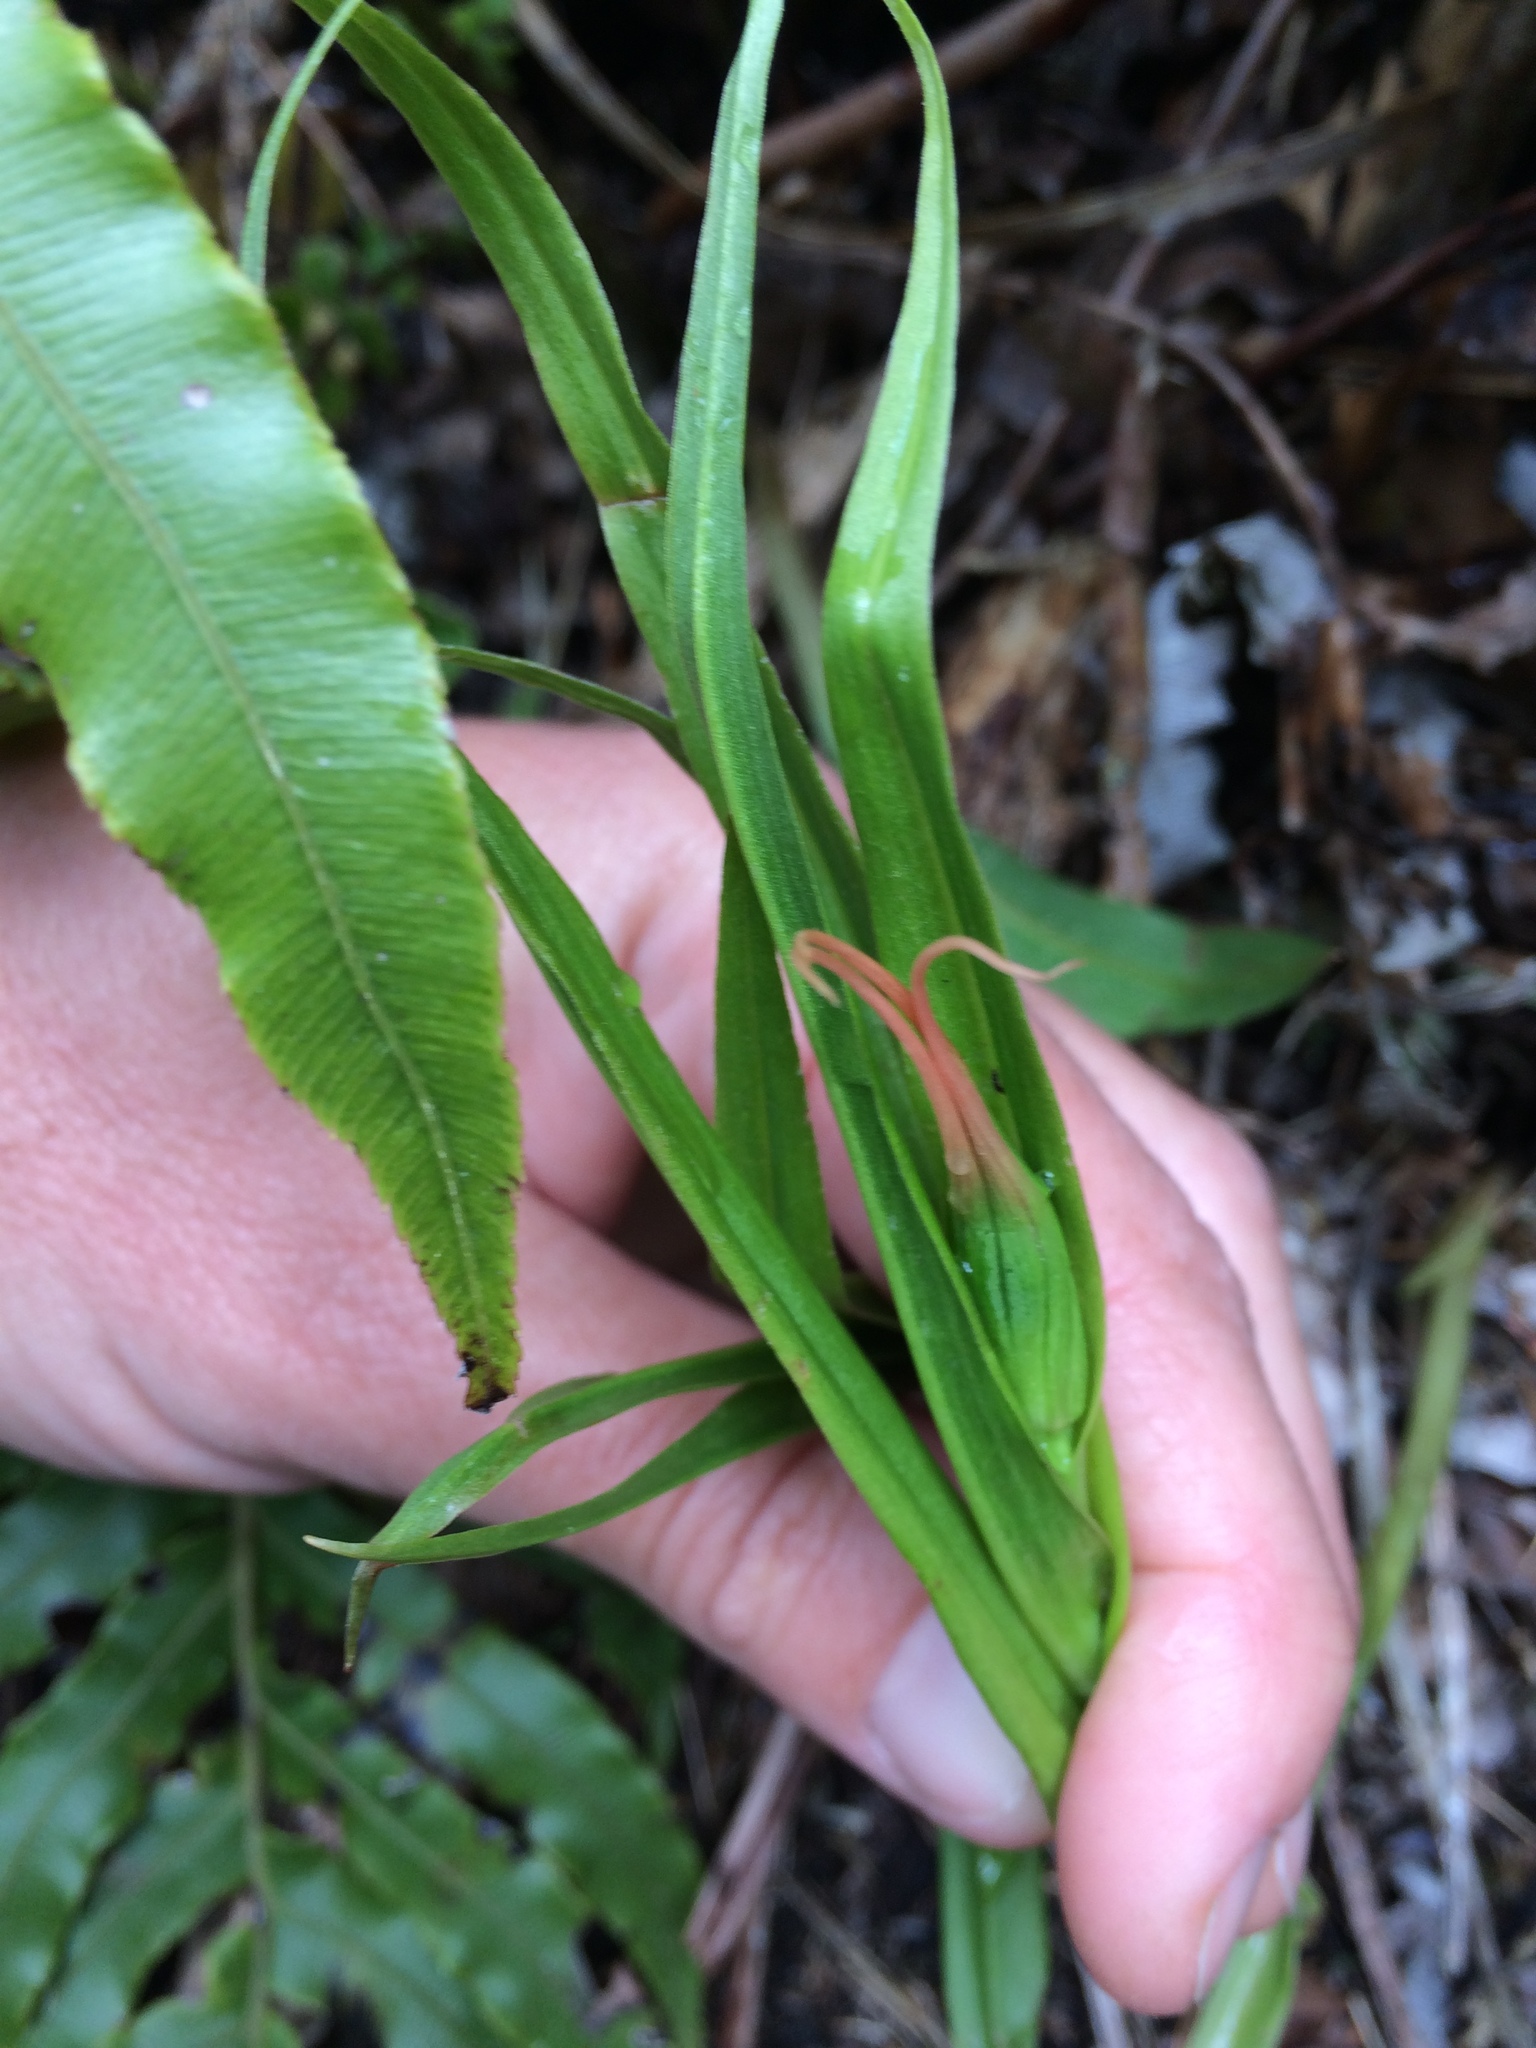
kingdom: Plantae
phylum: Tracheophyta
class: Liliopsida
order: Asparagales
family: Orchidaceae
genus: Pterostylis
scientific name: Pterostylis
